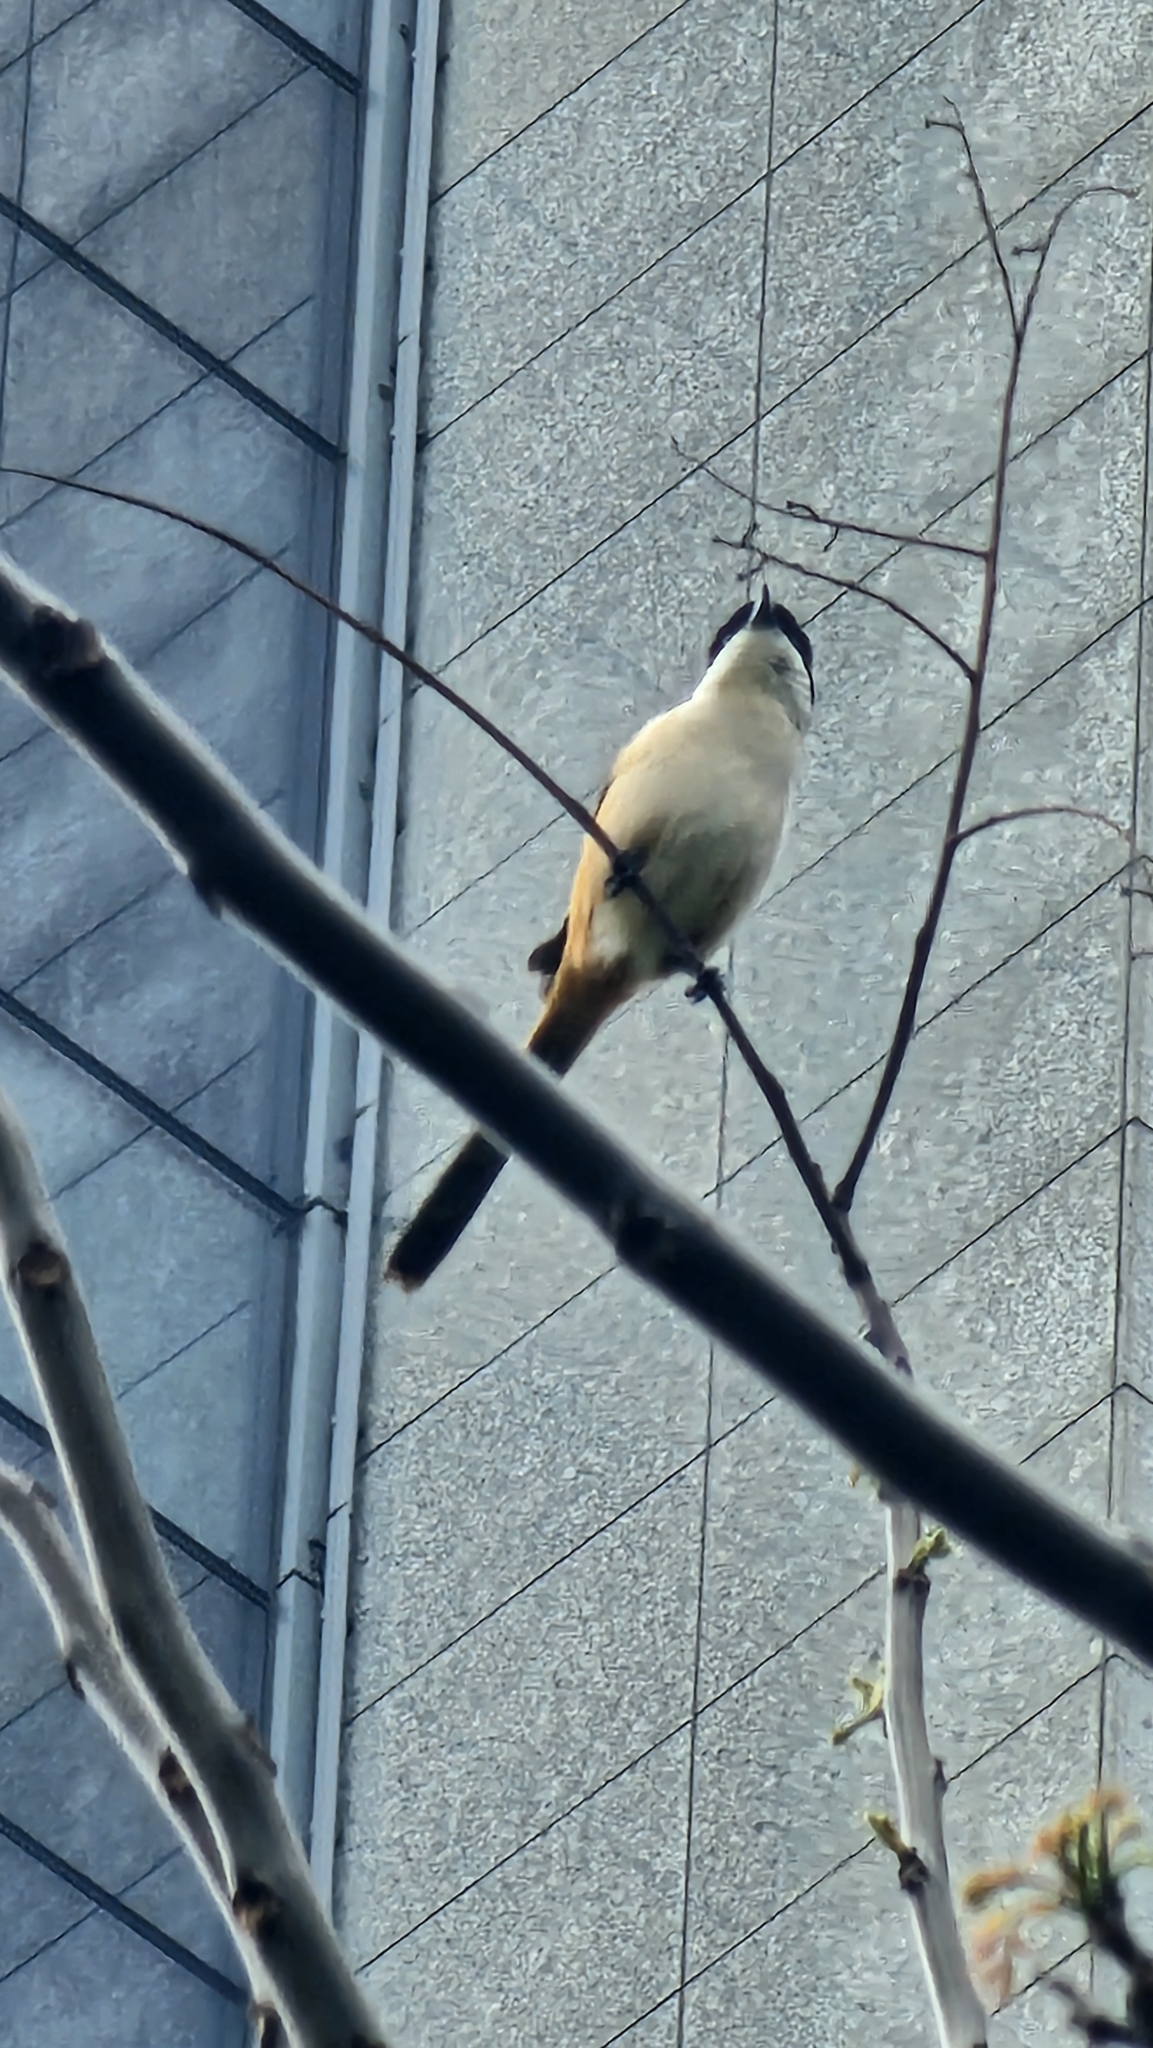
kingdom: Animalia
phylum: Chordata
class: Aves
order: Passeriformes
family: Laniidae
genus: Lanius
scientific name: Lanius schach
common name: Long-tailed shrike
